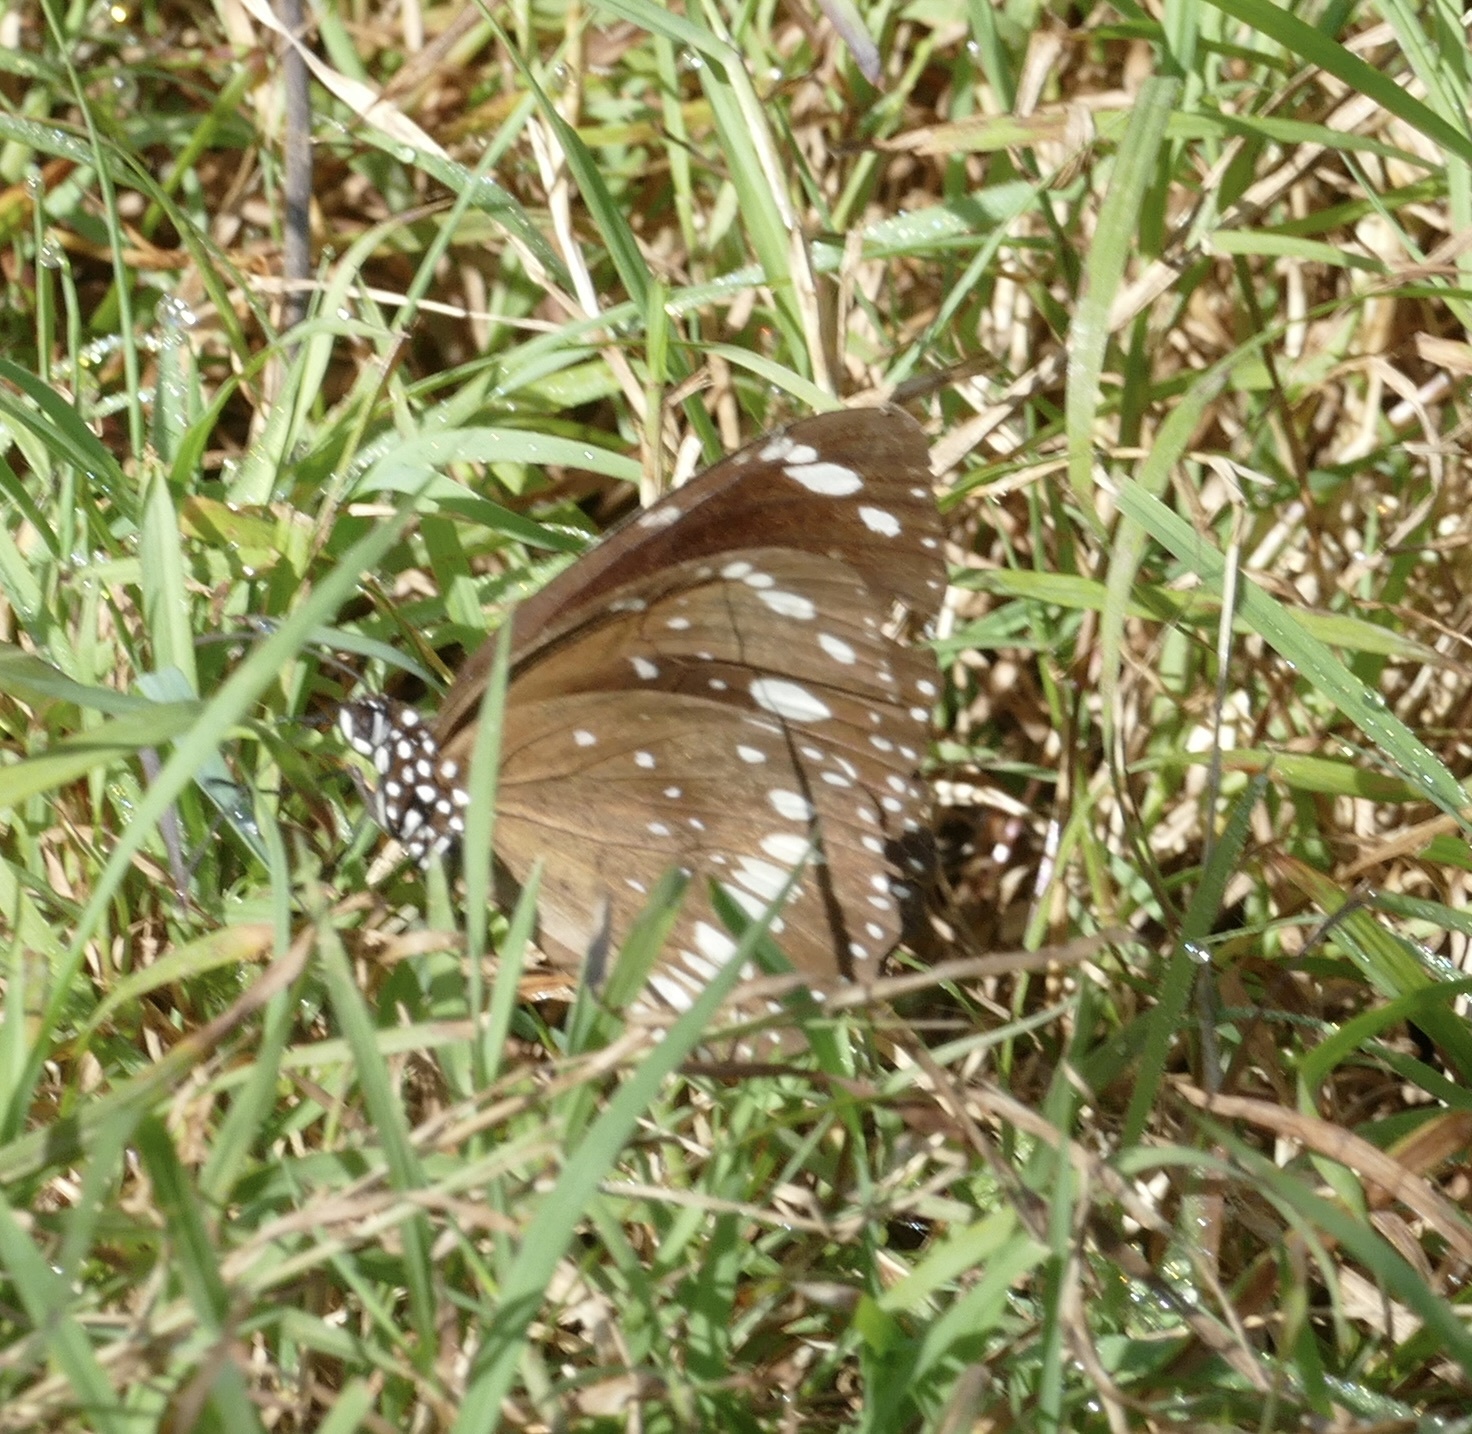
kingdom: Animalia
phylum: Arthropoda
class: Insecta
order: Lepidoptera
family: Nymphalidae
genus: Euploea
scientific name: Euploea core
